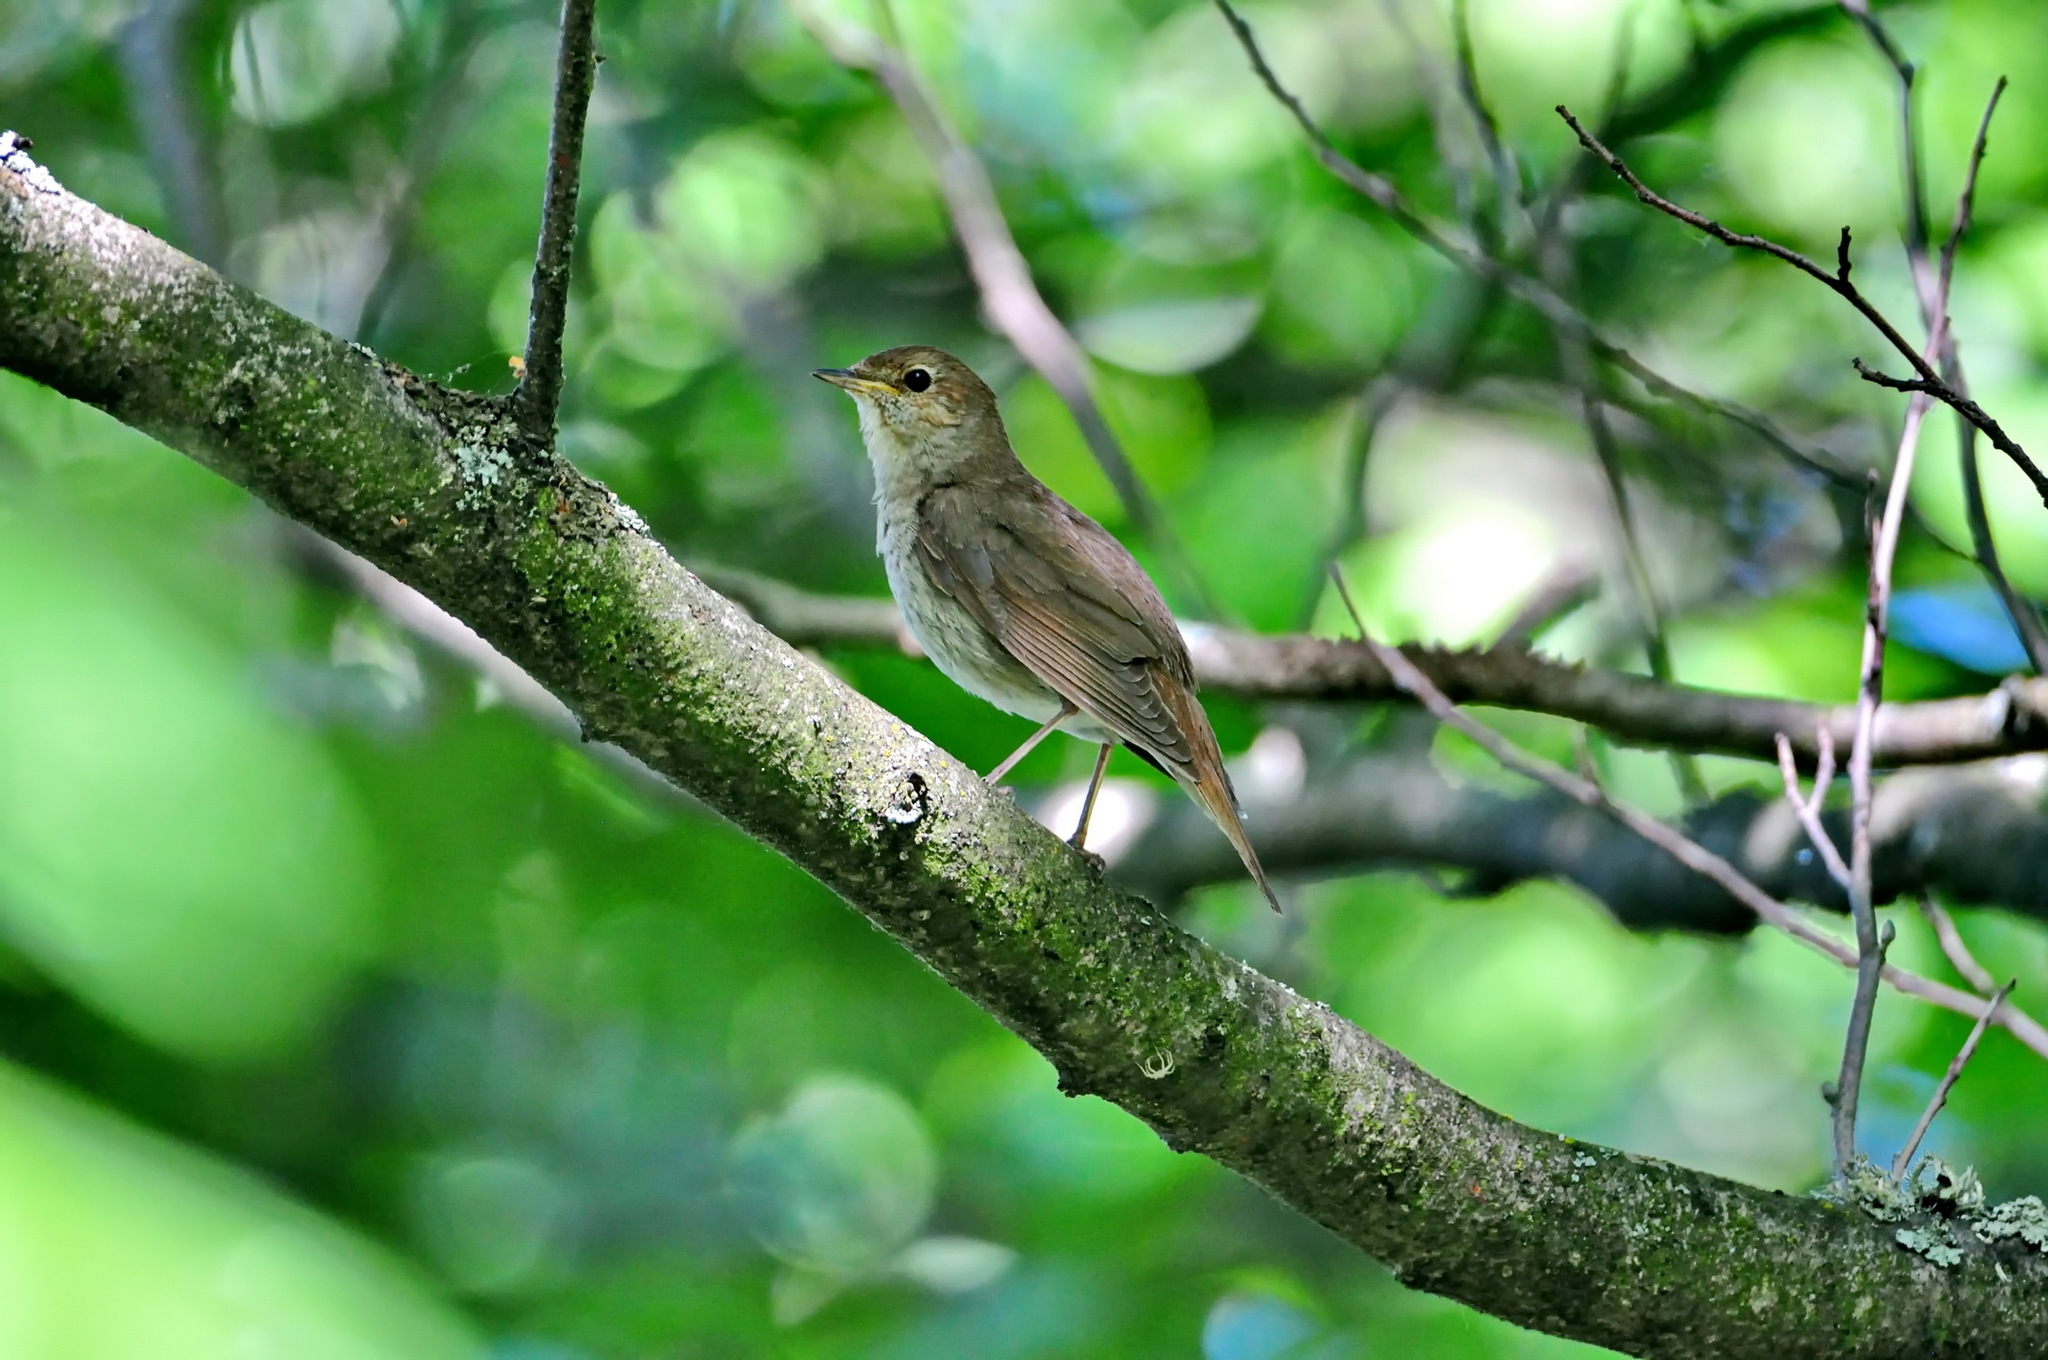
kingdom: Animalia
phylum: Chordata
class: Aves
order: Passeriformes
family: Muscicapidae
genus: Luscinia
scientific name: Luscinia luscinia
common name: Thrush nightingale
